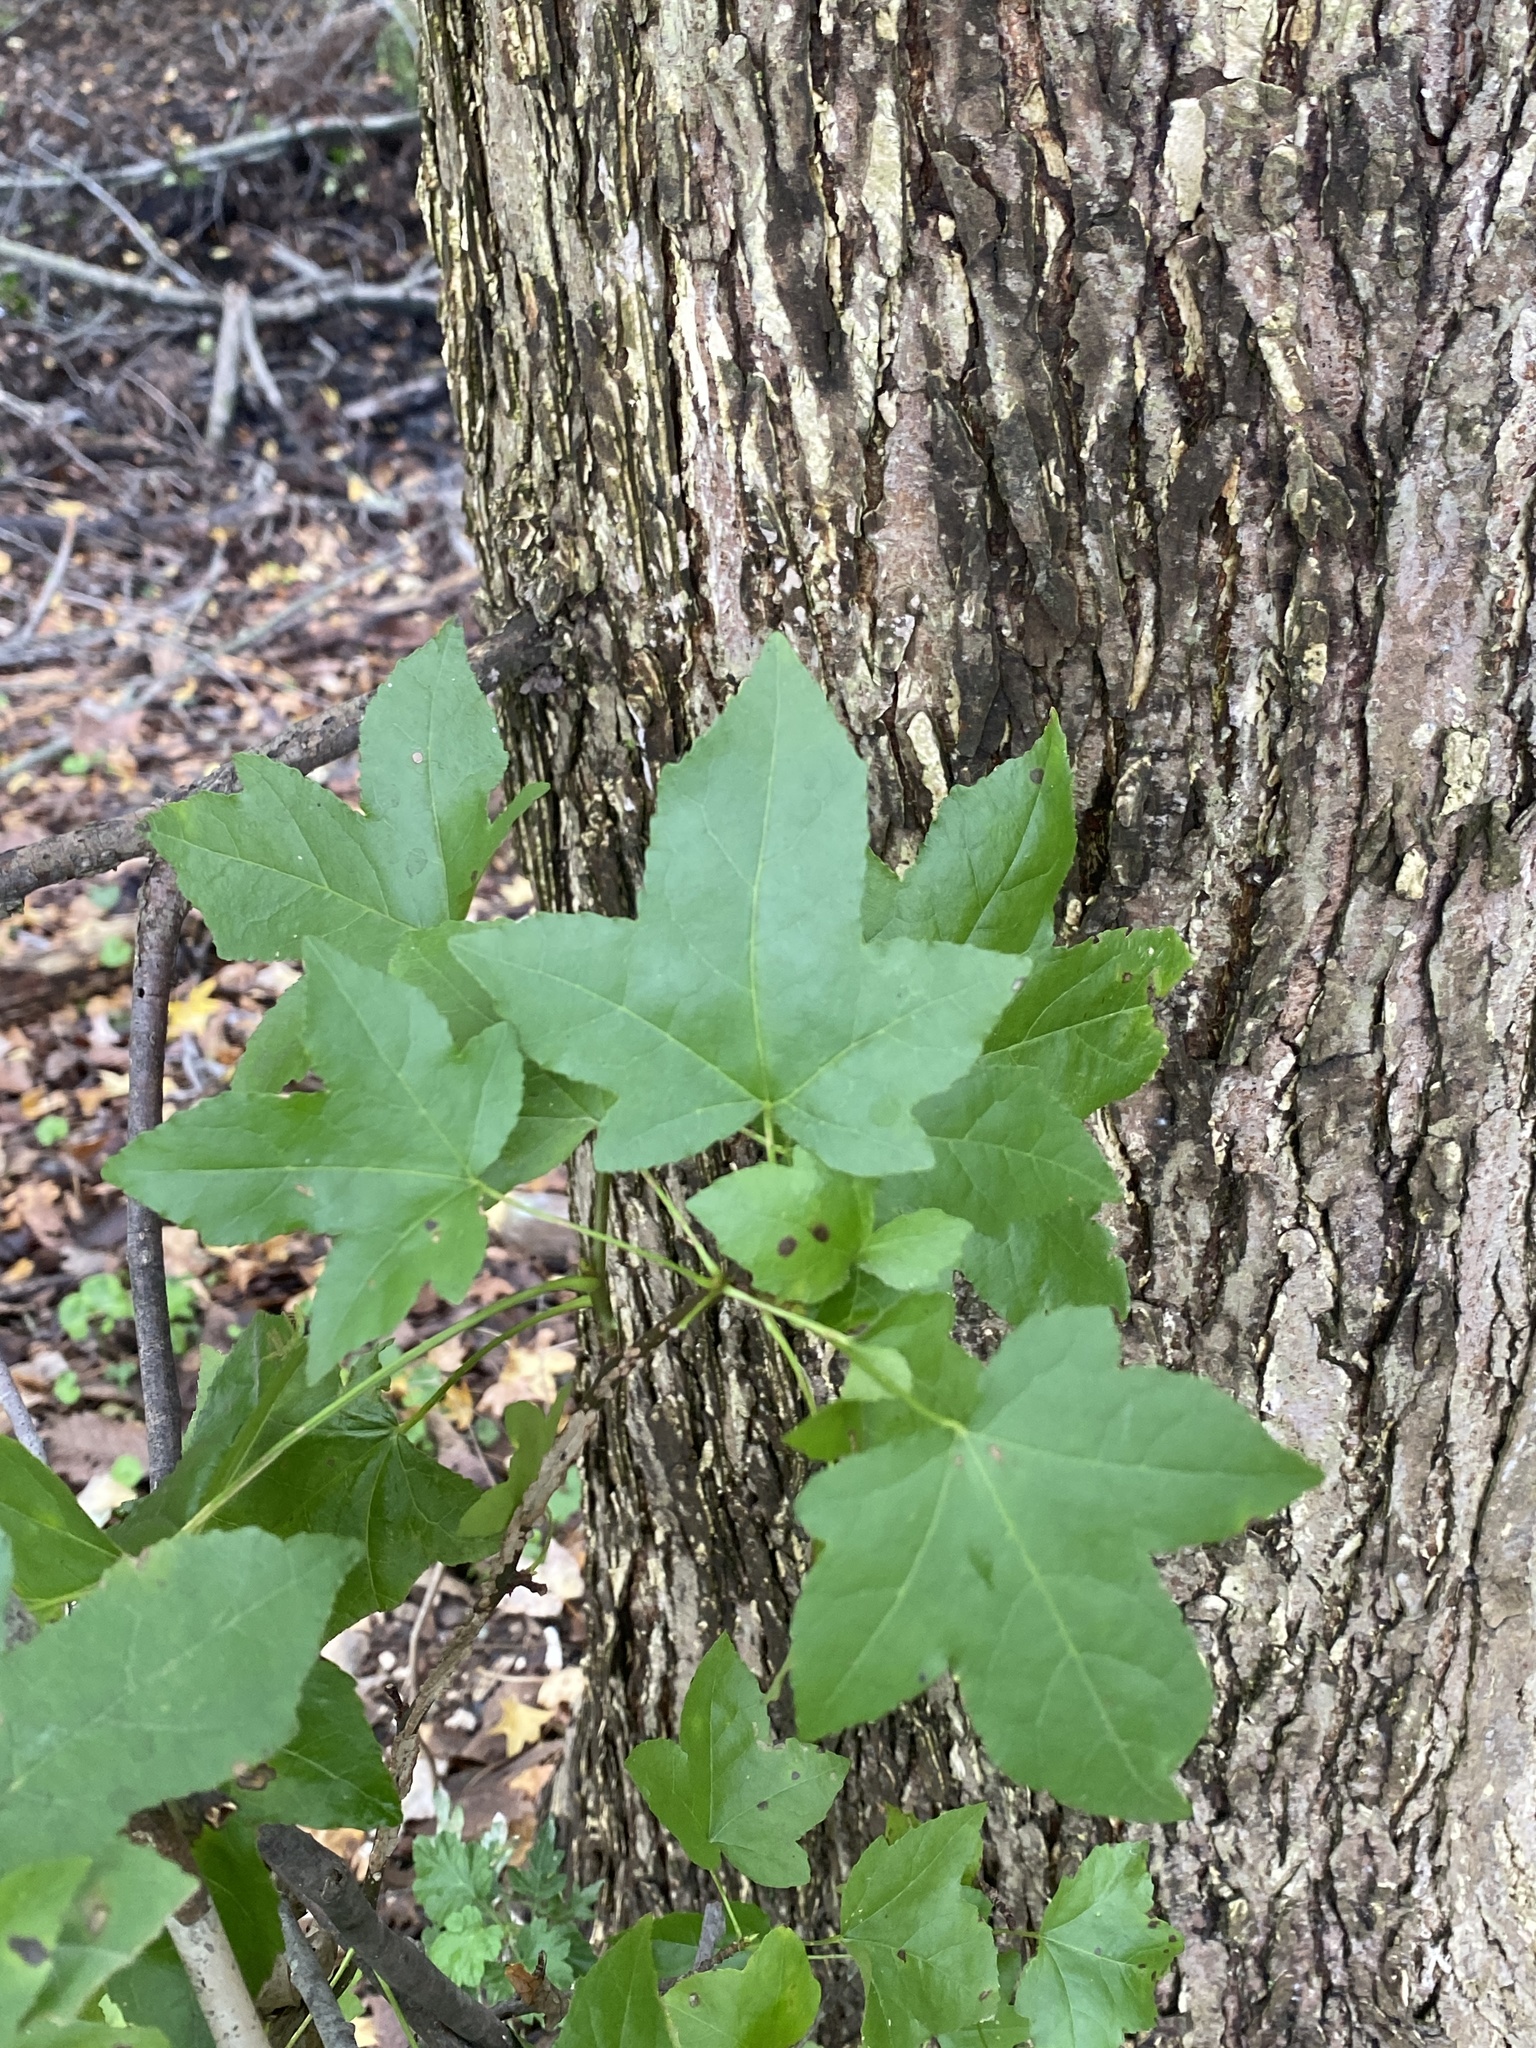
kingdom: Plantae
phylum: Tracheophyta
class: Magnoliopsida
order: Saxifragales
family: Altingiaceae
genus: Liquidambar
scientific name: Liquidambar styraciflua
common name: Sweet gum
